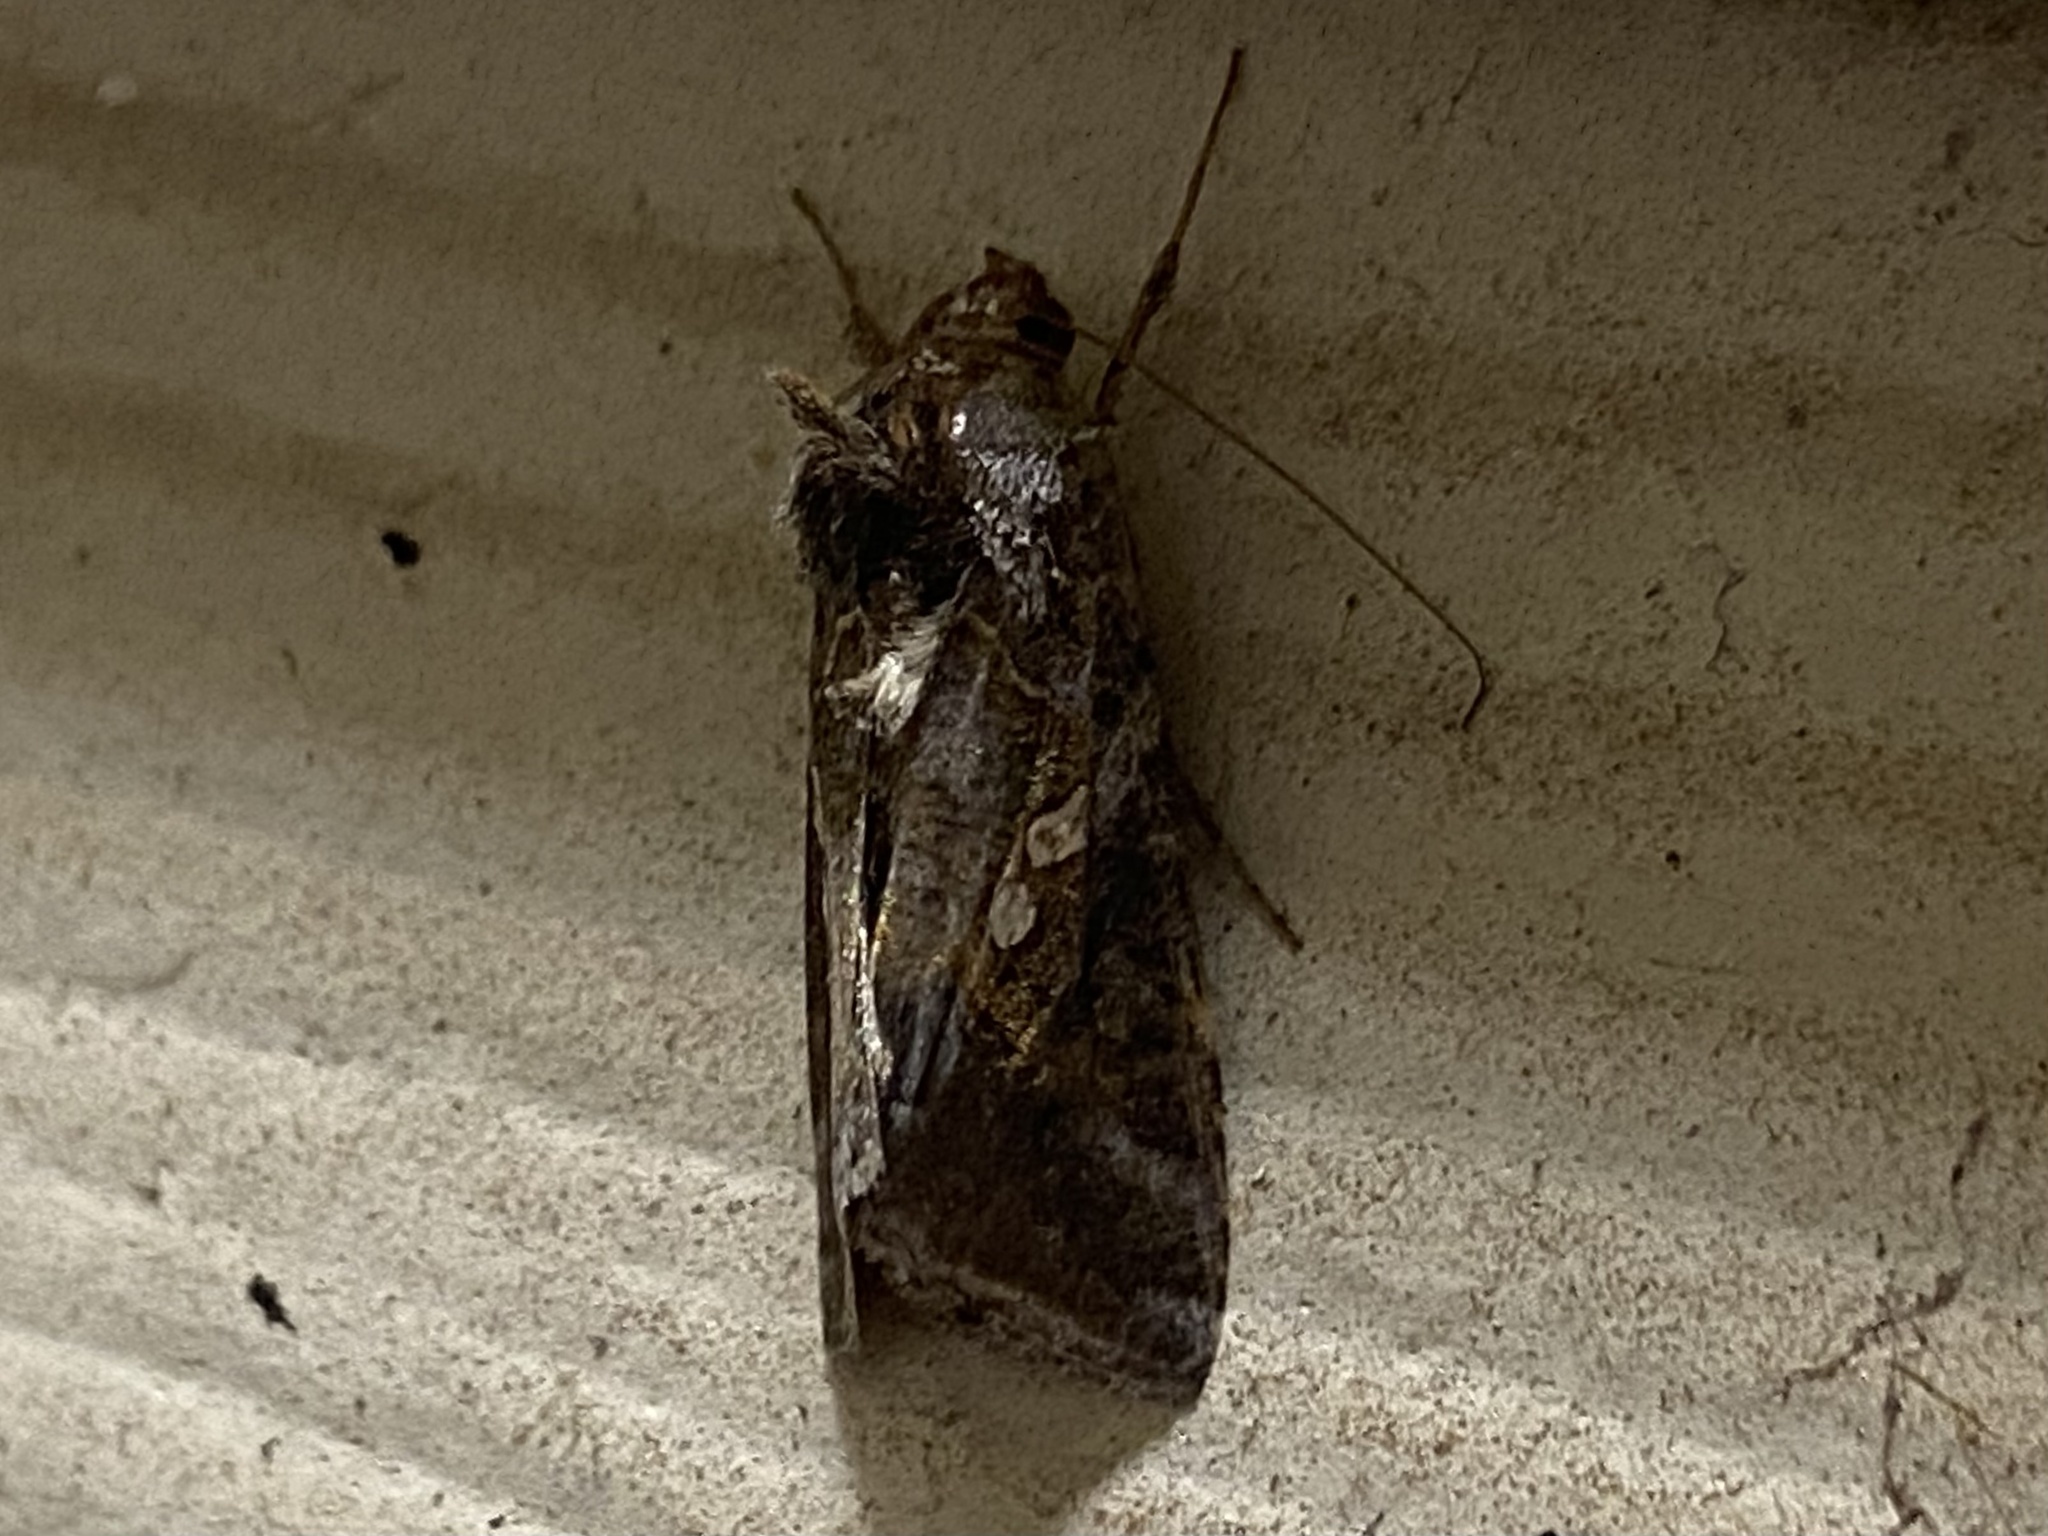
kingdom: Animalia
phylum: Arthropoda
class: Insecta
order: Lepidoptera
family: Noctuidae
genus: Chrysodeixis
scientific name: Chrysodeixis includens
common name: Cutworm moth
